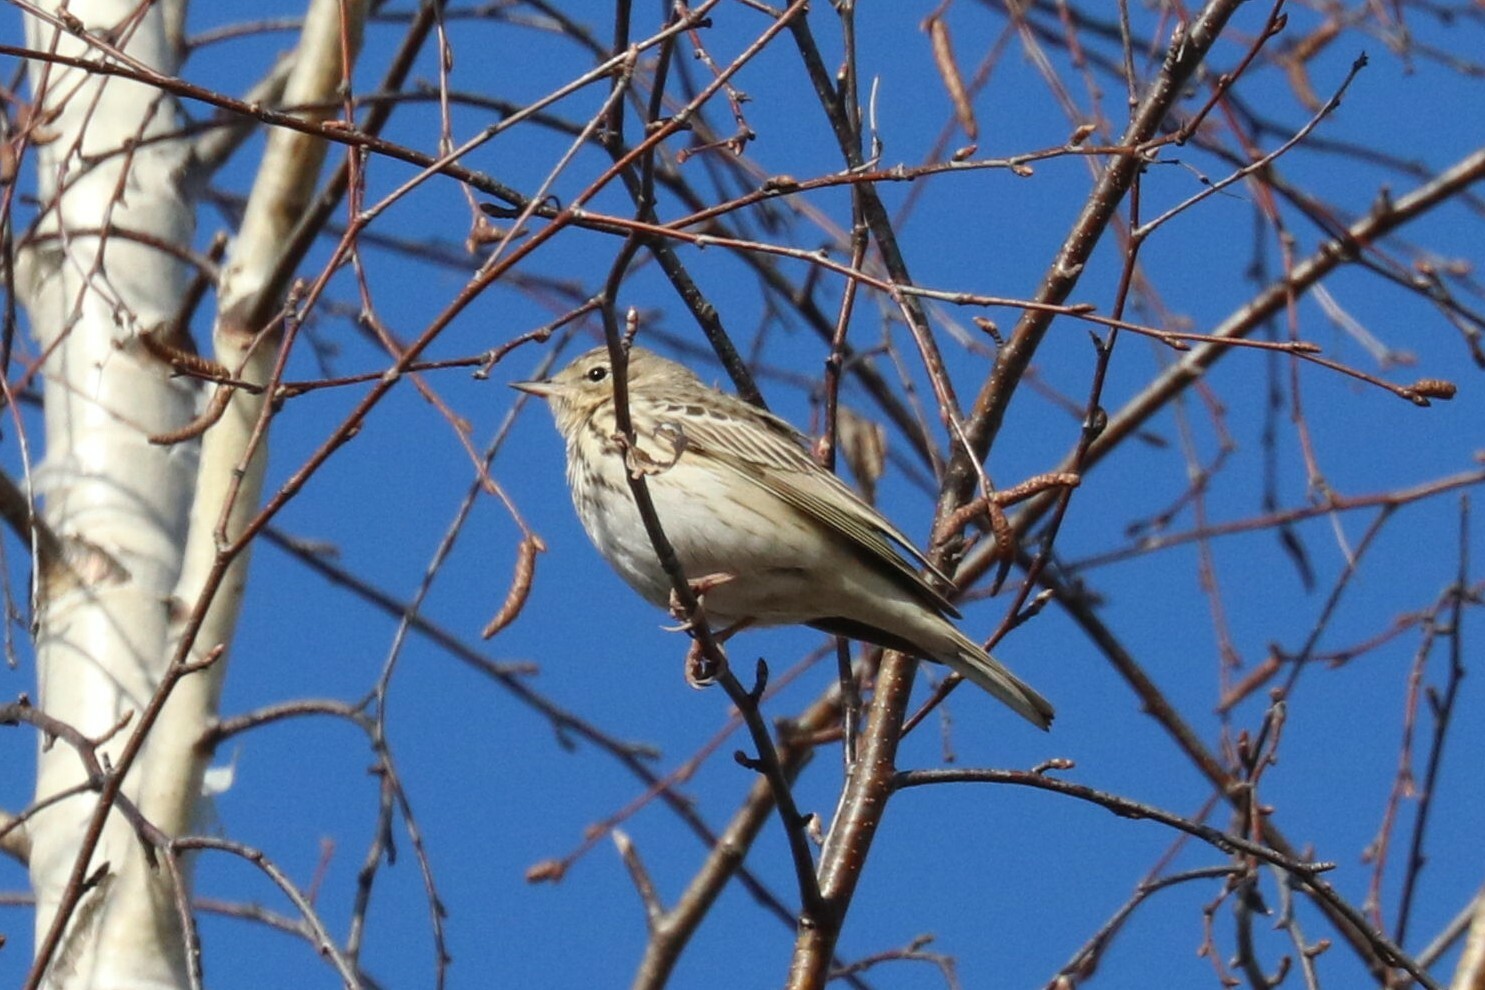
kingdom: Animalia
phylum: Chordata
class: Aves
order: Passeriformes
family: Motacillidae
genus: Anthus
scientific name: Anthus trivialis
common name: Tree pipit
